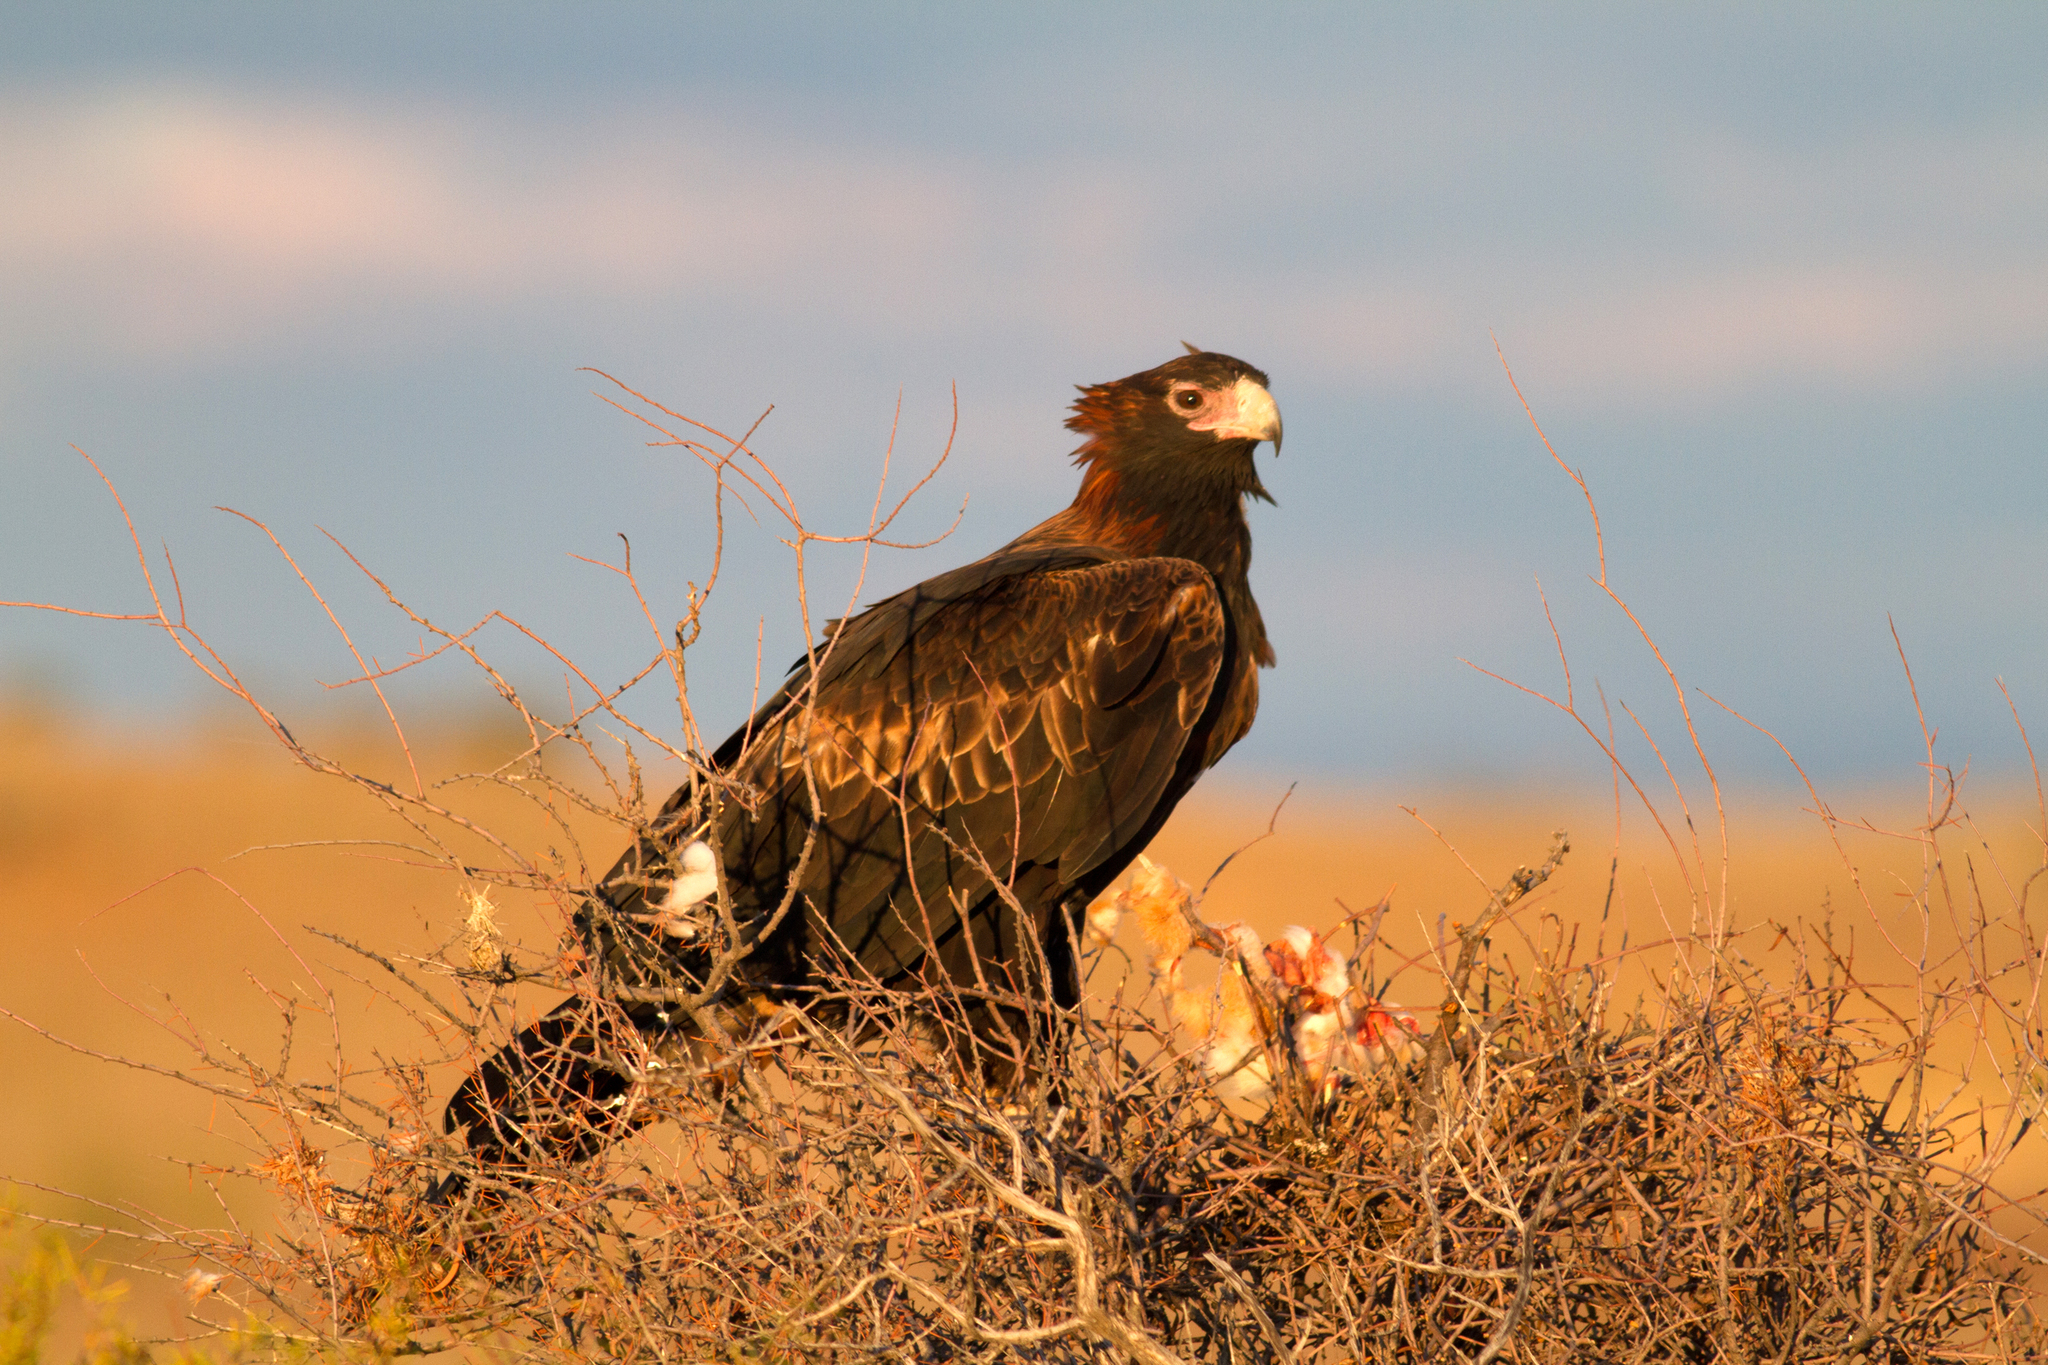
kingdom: Animalia
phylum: Chordata
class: Aves
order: Accipitriformes
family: Accipitridae
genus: Aquila
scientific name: Aquila audax
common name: Wedge-tailed eagle
